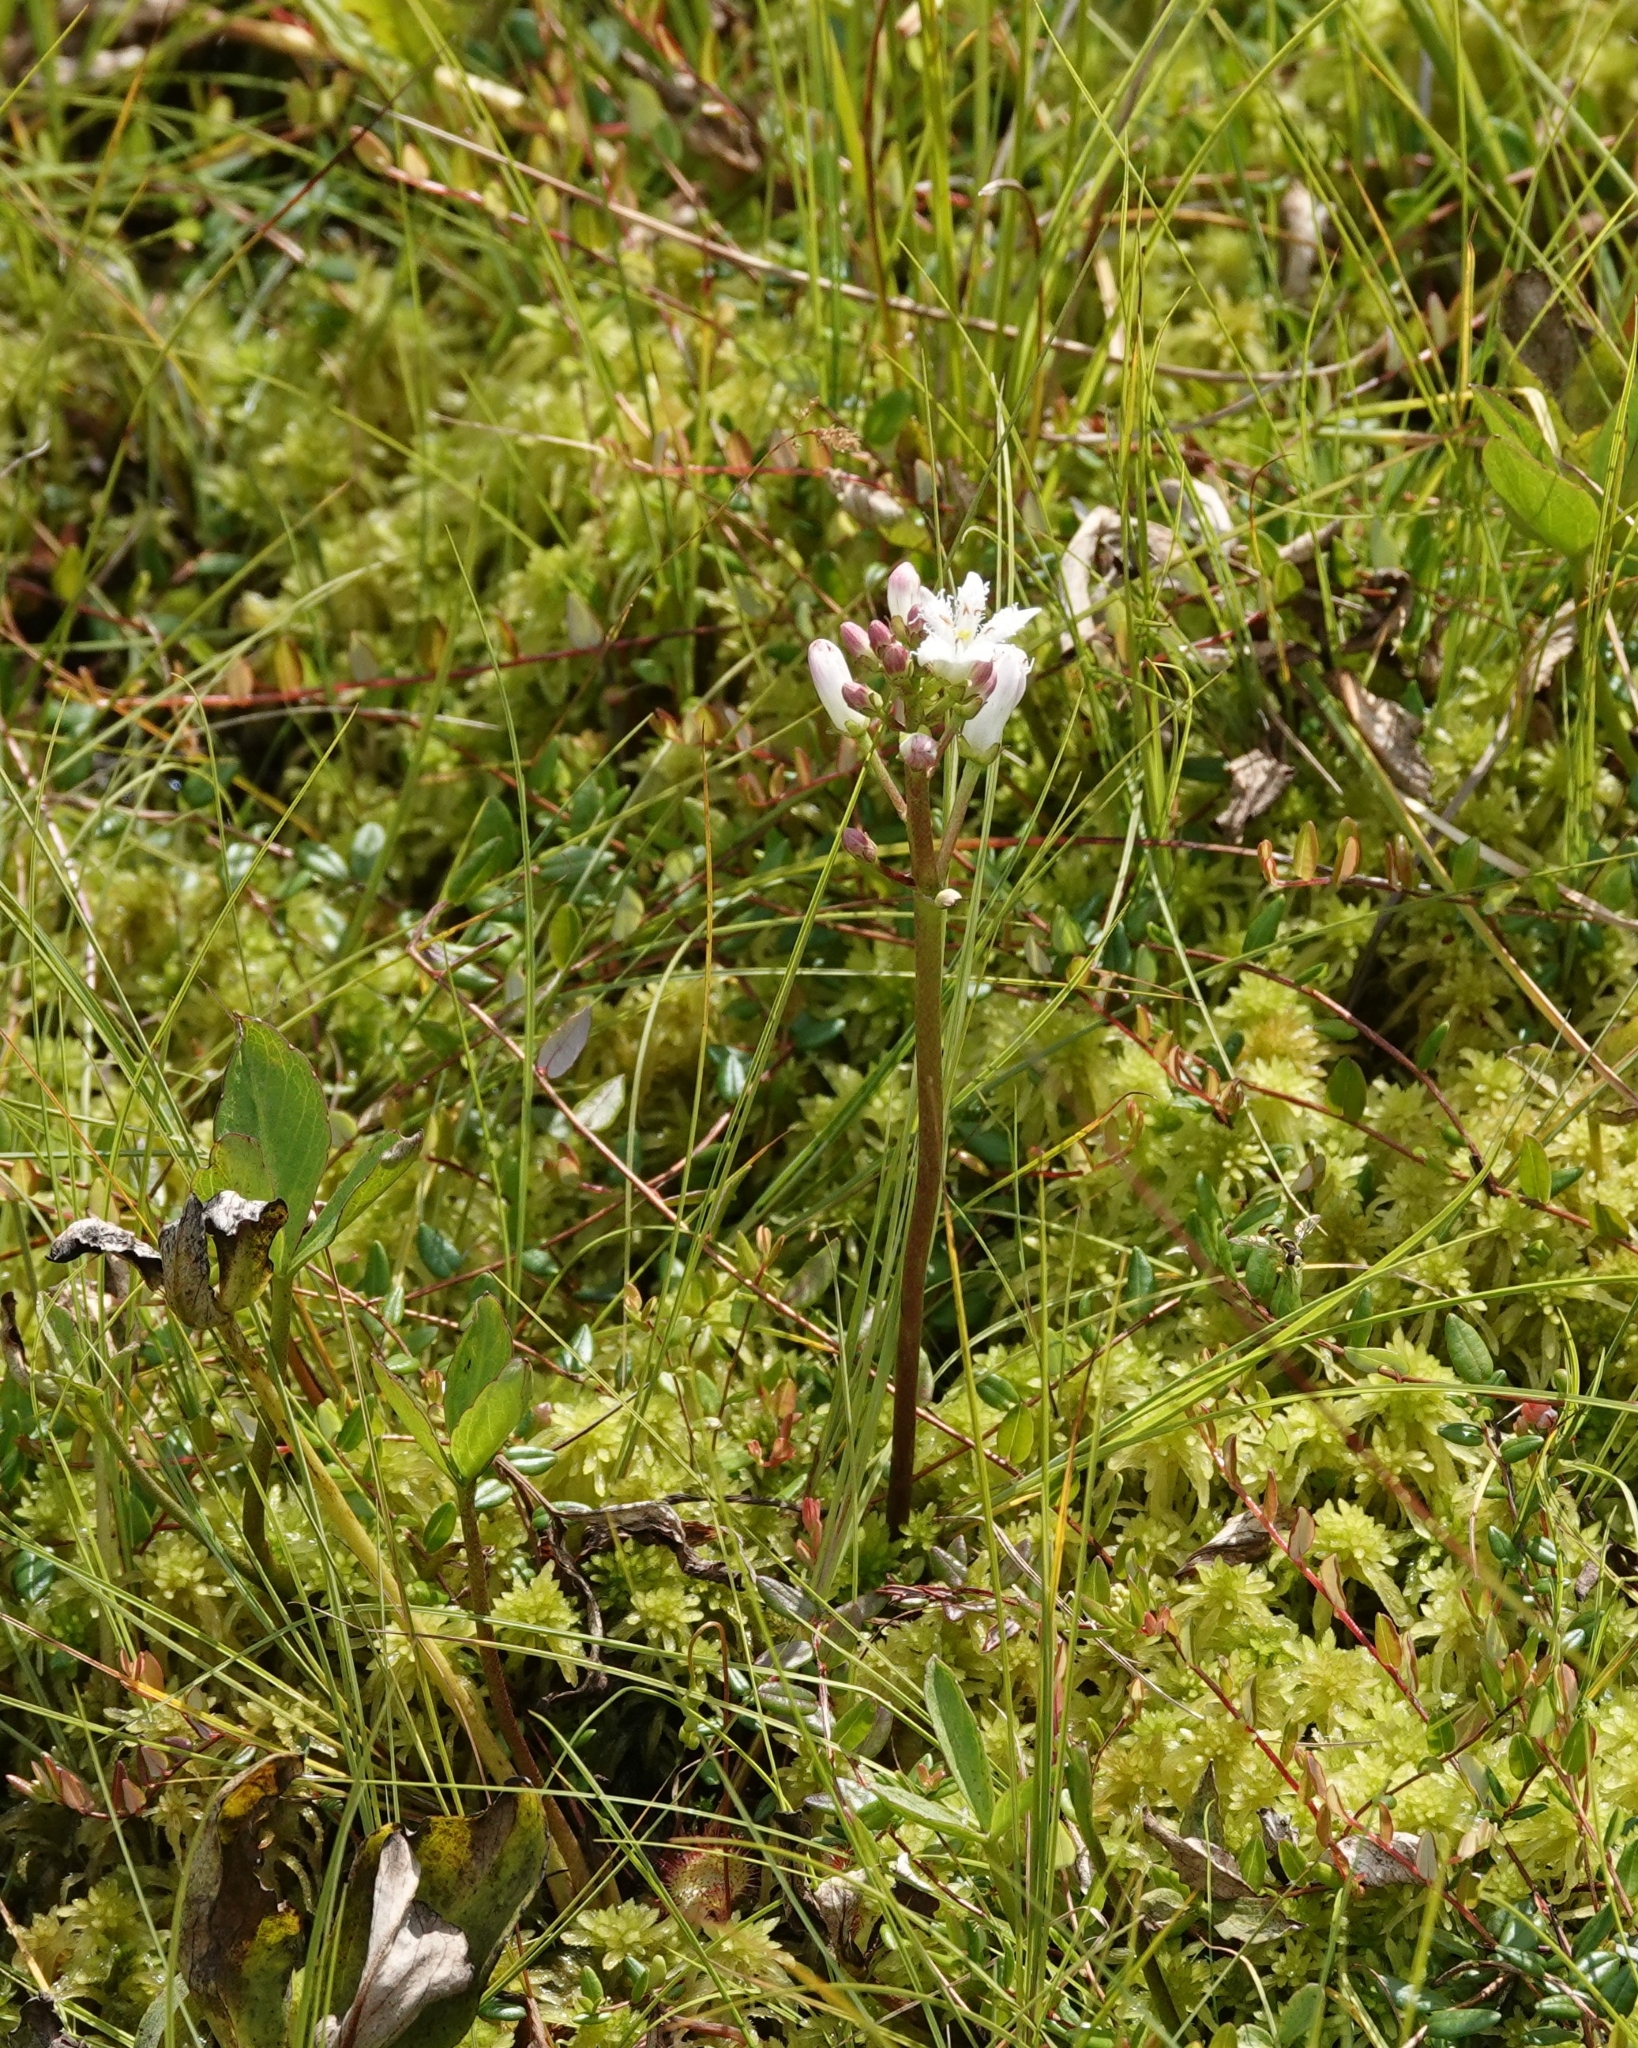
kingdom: Plantae
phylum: Tracheophyta
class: Magnoliopsida
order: Asterales
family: Menyanthaceae
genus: Menyanthes
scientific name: Menyanthes trifoliata
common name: Bogbean
